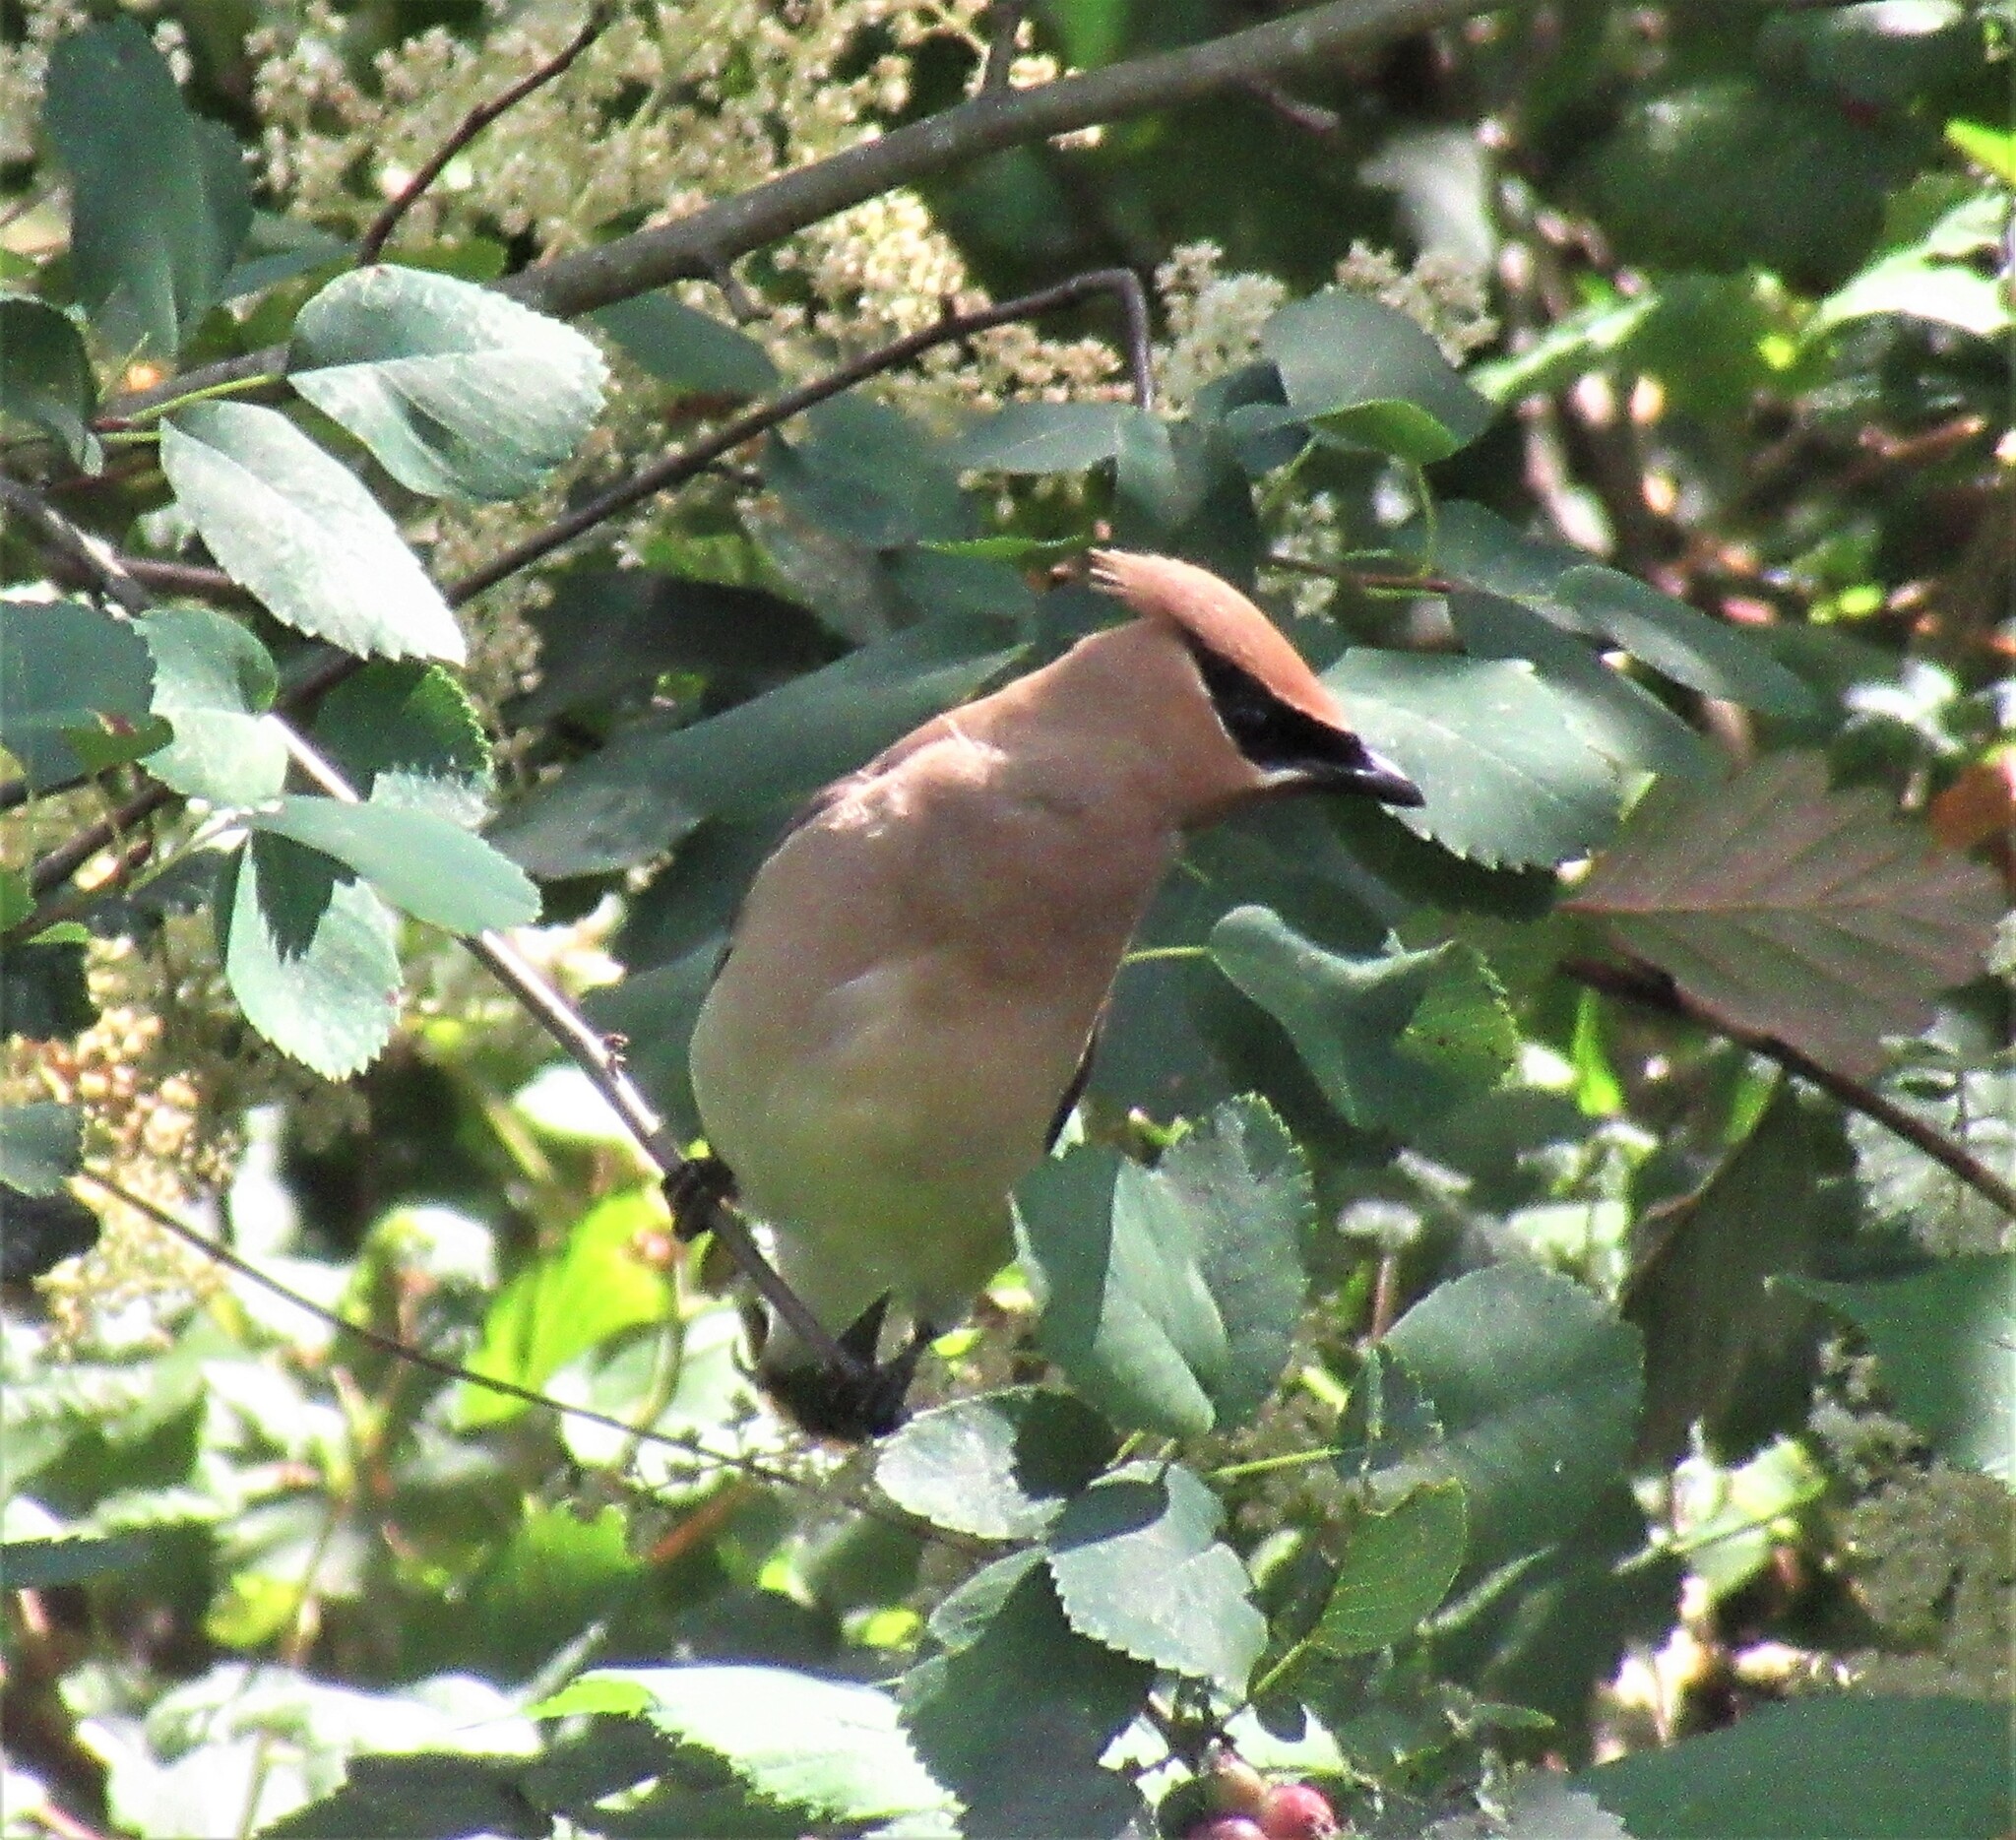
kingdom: Animalia
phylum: Chordata
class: Aves
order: Passeriformes
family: Bombycillidae
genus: Bombycilla
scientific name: Bombycilla cedrorum
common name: Cedar waxwing
